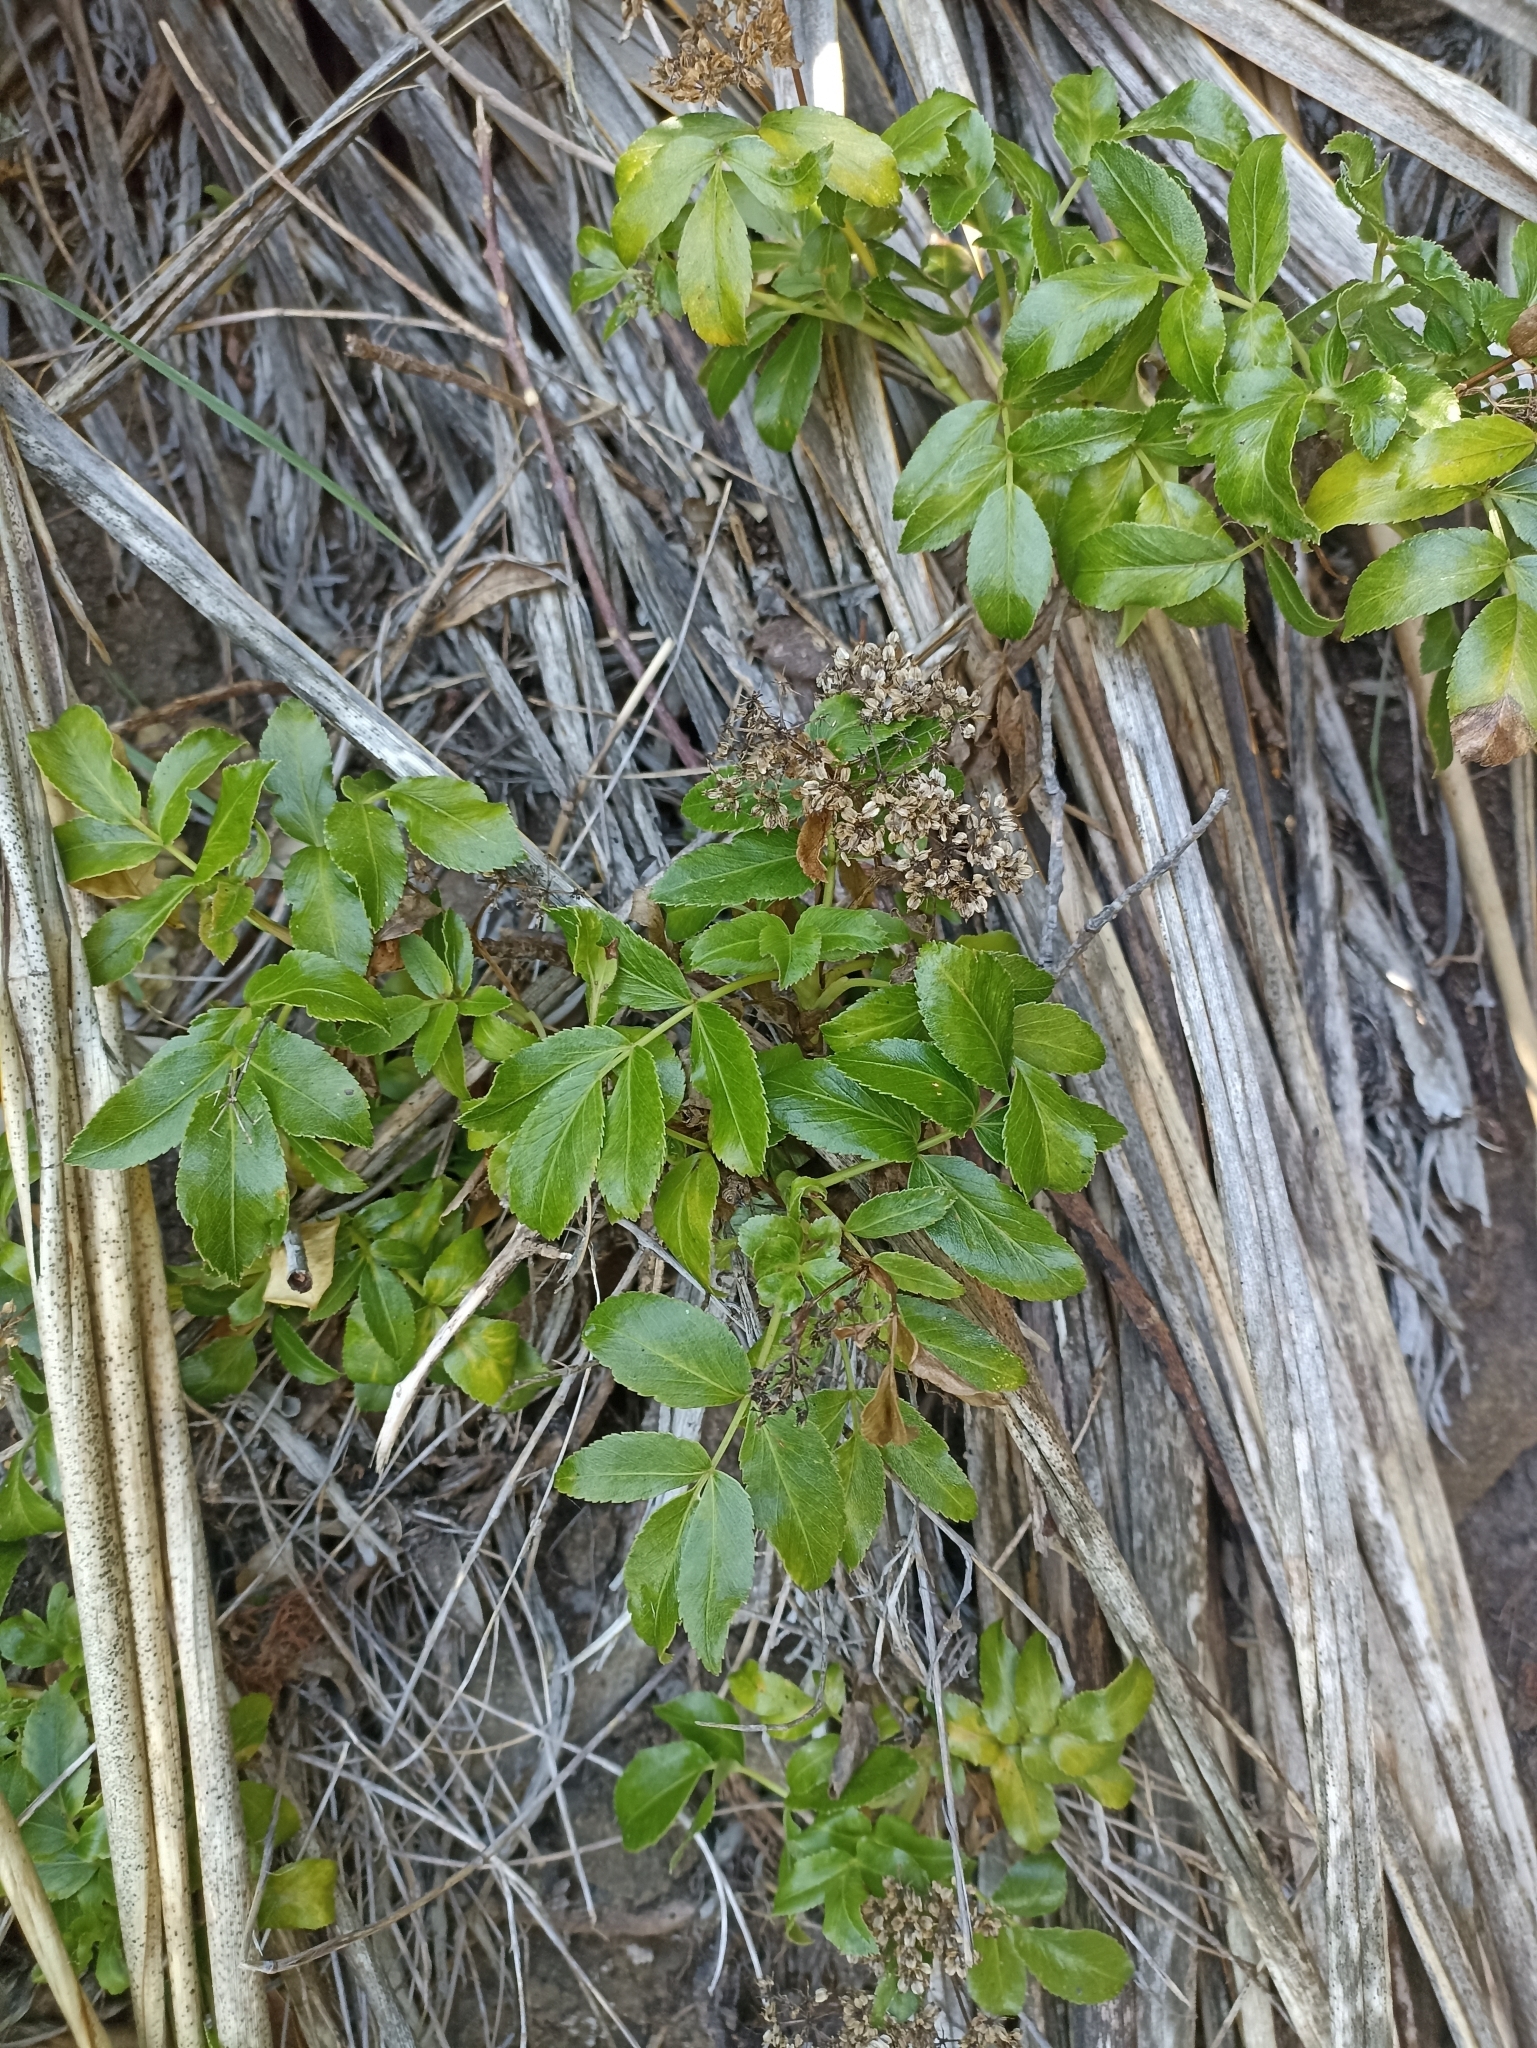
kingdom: Plantae
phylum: Tracheophyta
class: Magnoliopsida
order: Apiales
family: Apiaceae
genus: Scandia
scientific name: Scandia rosifolia
